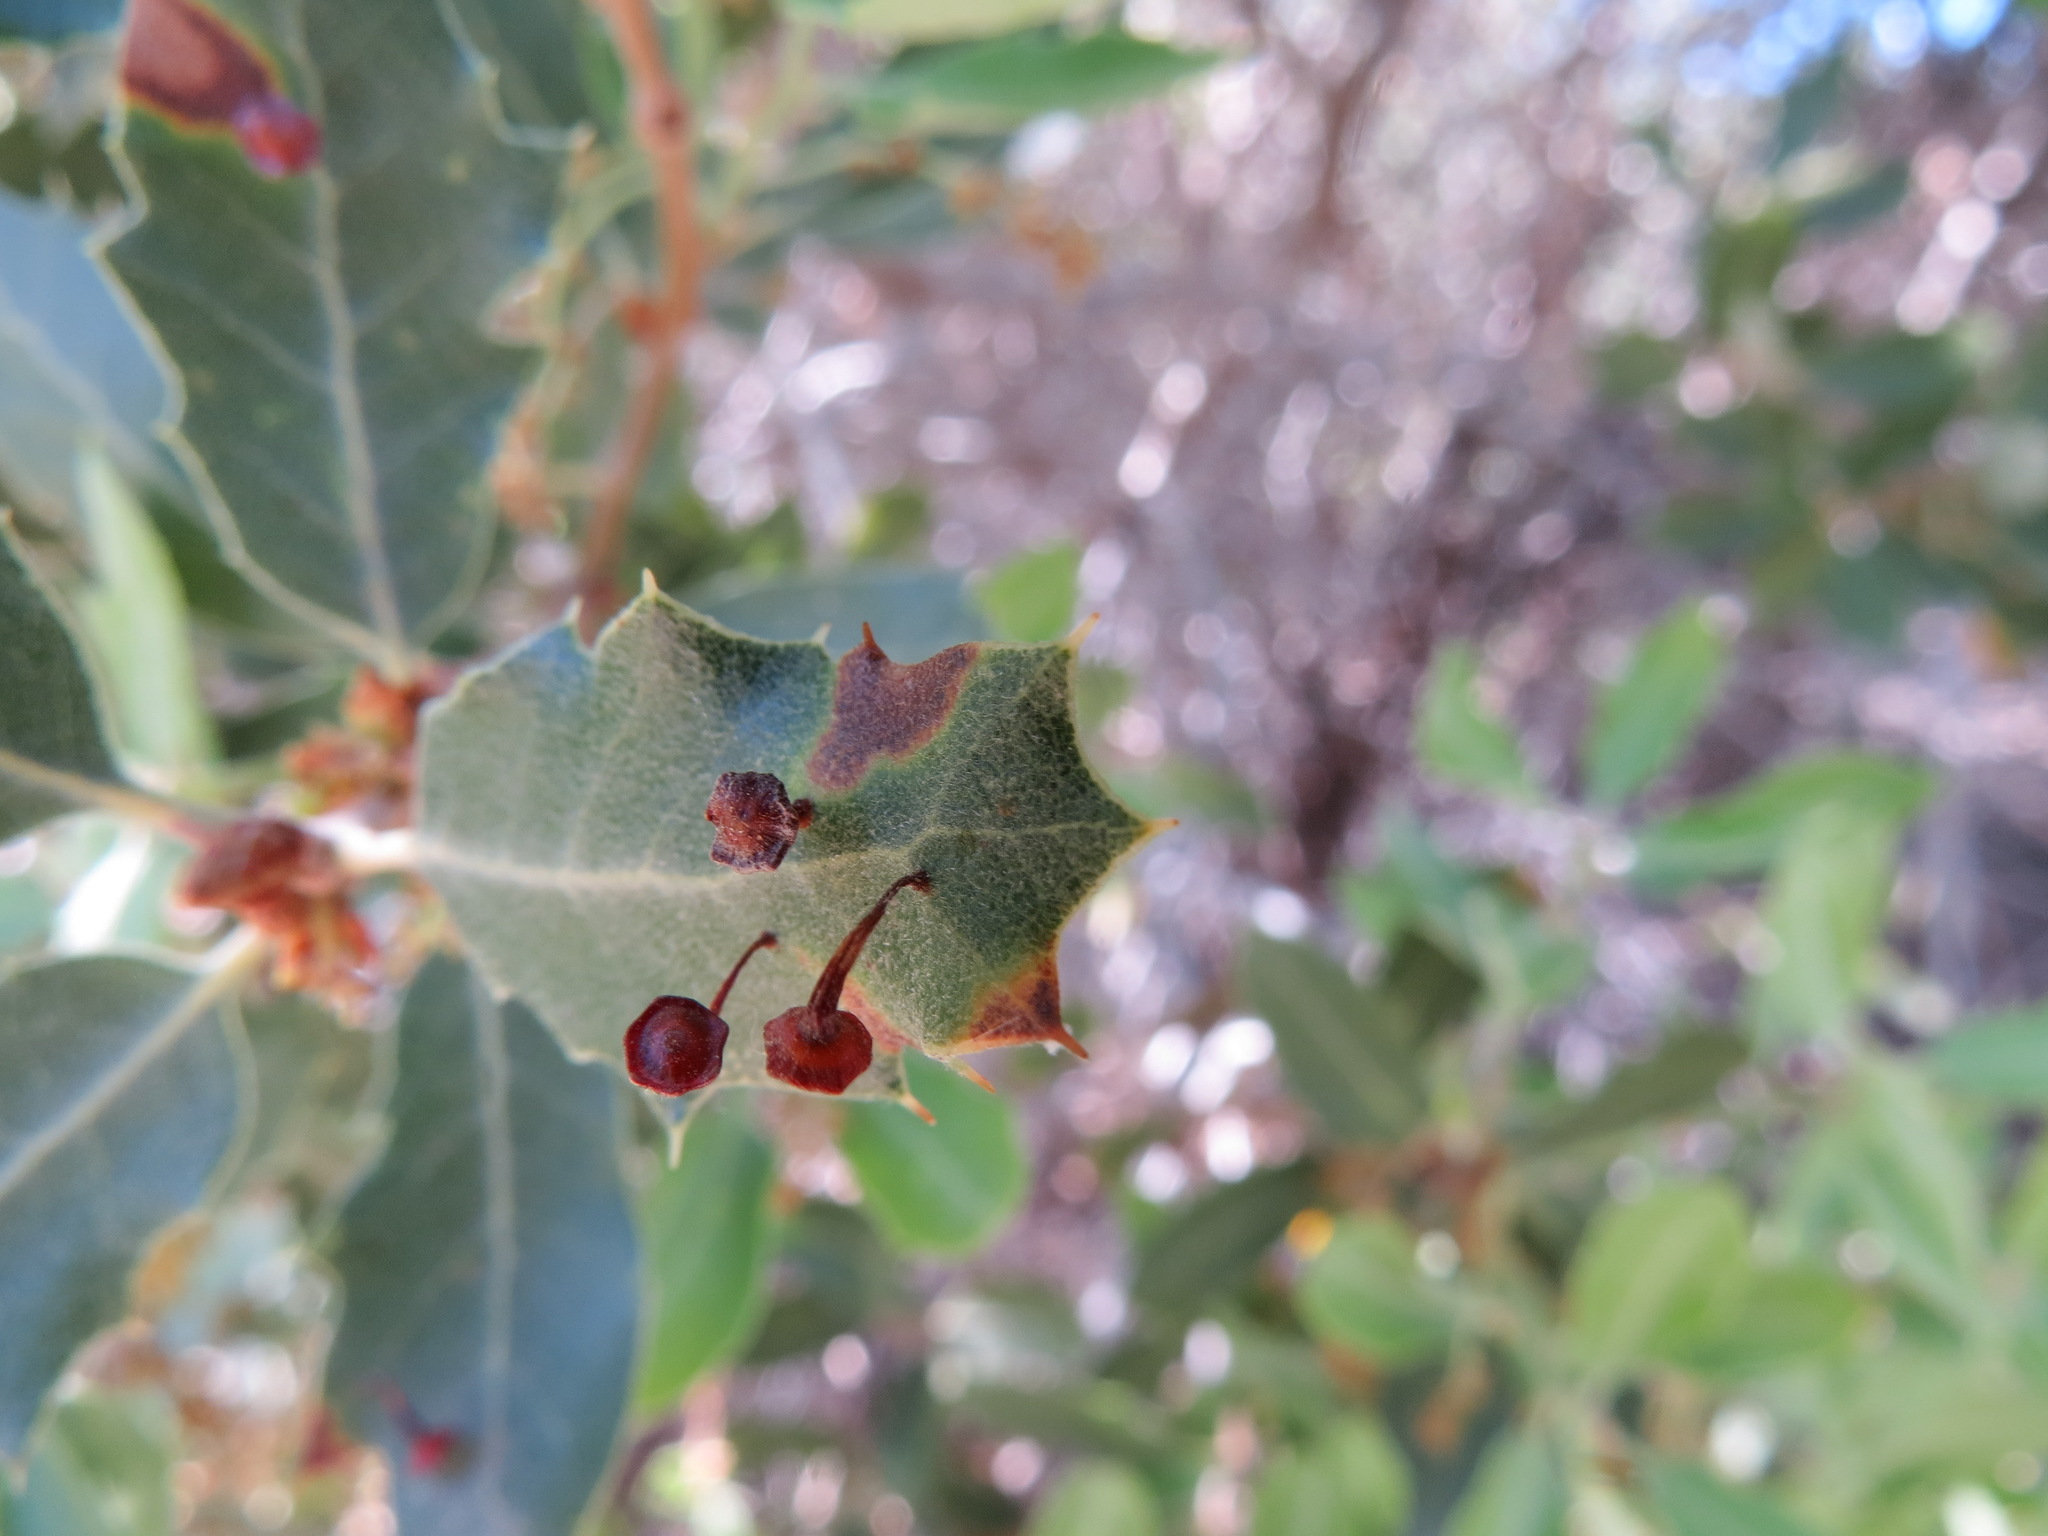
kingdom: Animalia
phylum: Arthropoda
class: Insecta
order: Hymenoptera
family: Cynipidae
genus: Andricus
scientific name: Andricus
